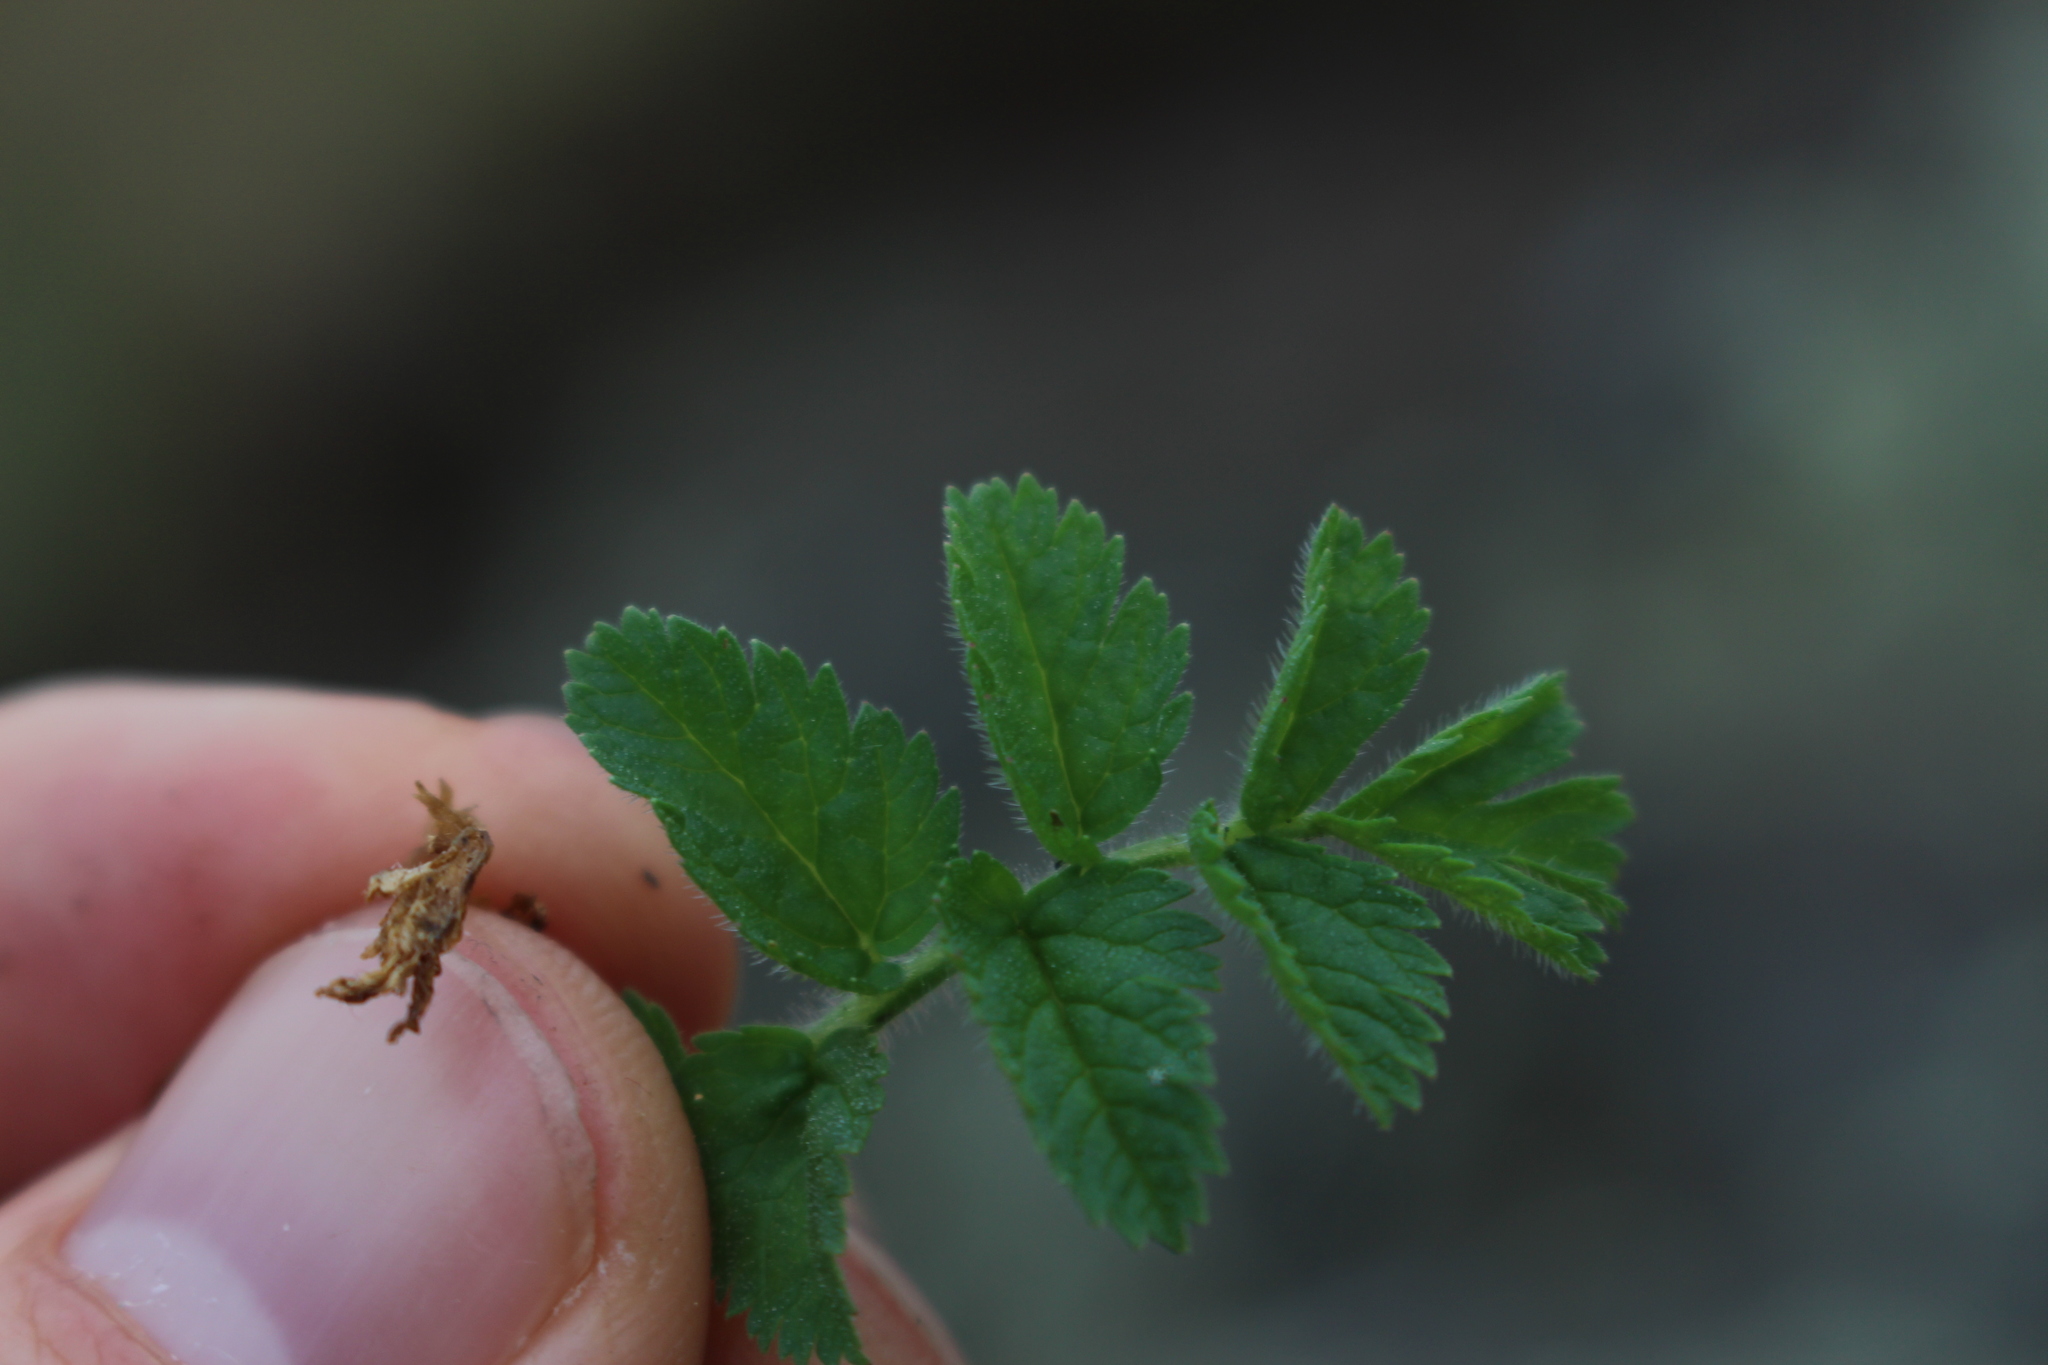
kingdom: Plantae
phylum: Tracheophyta
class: Magnoliopsida
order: Geraniales
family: Geraniaceae
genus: Erodium
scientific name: Erodium moschatum
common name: Musk stork's-bill
